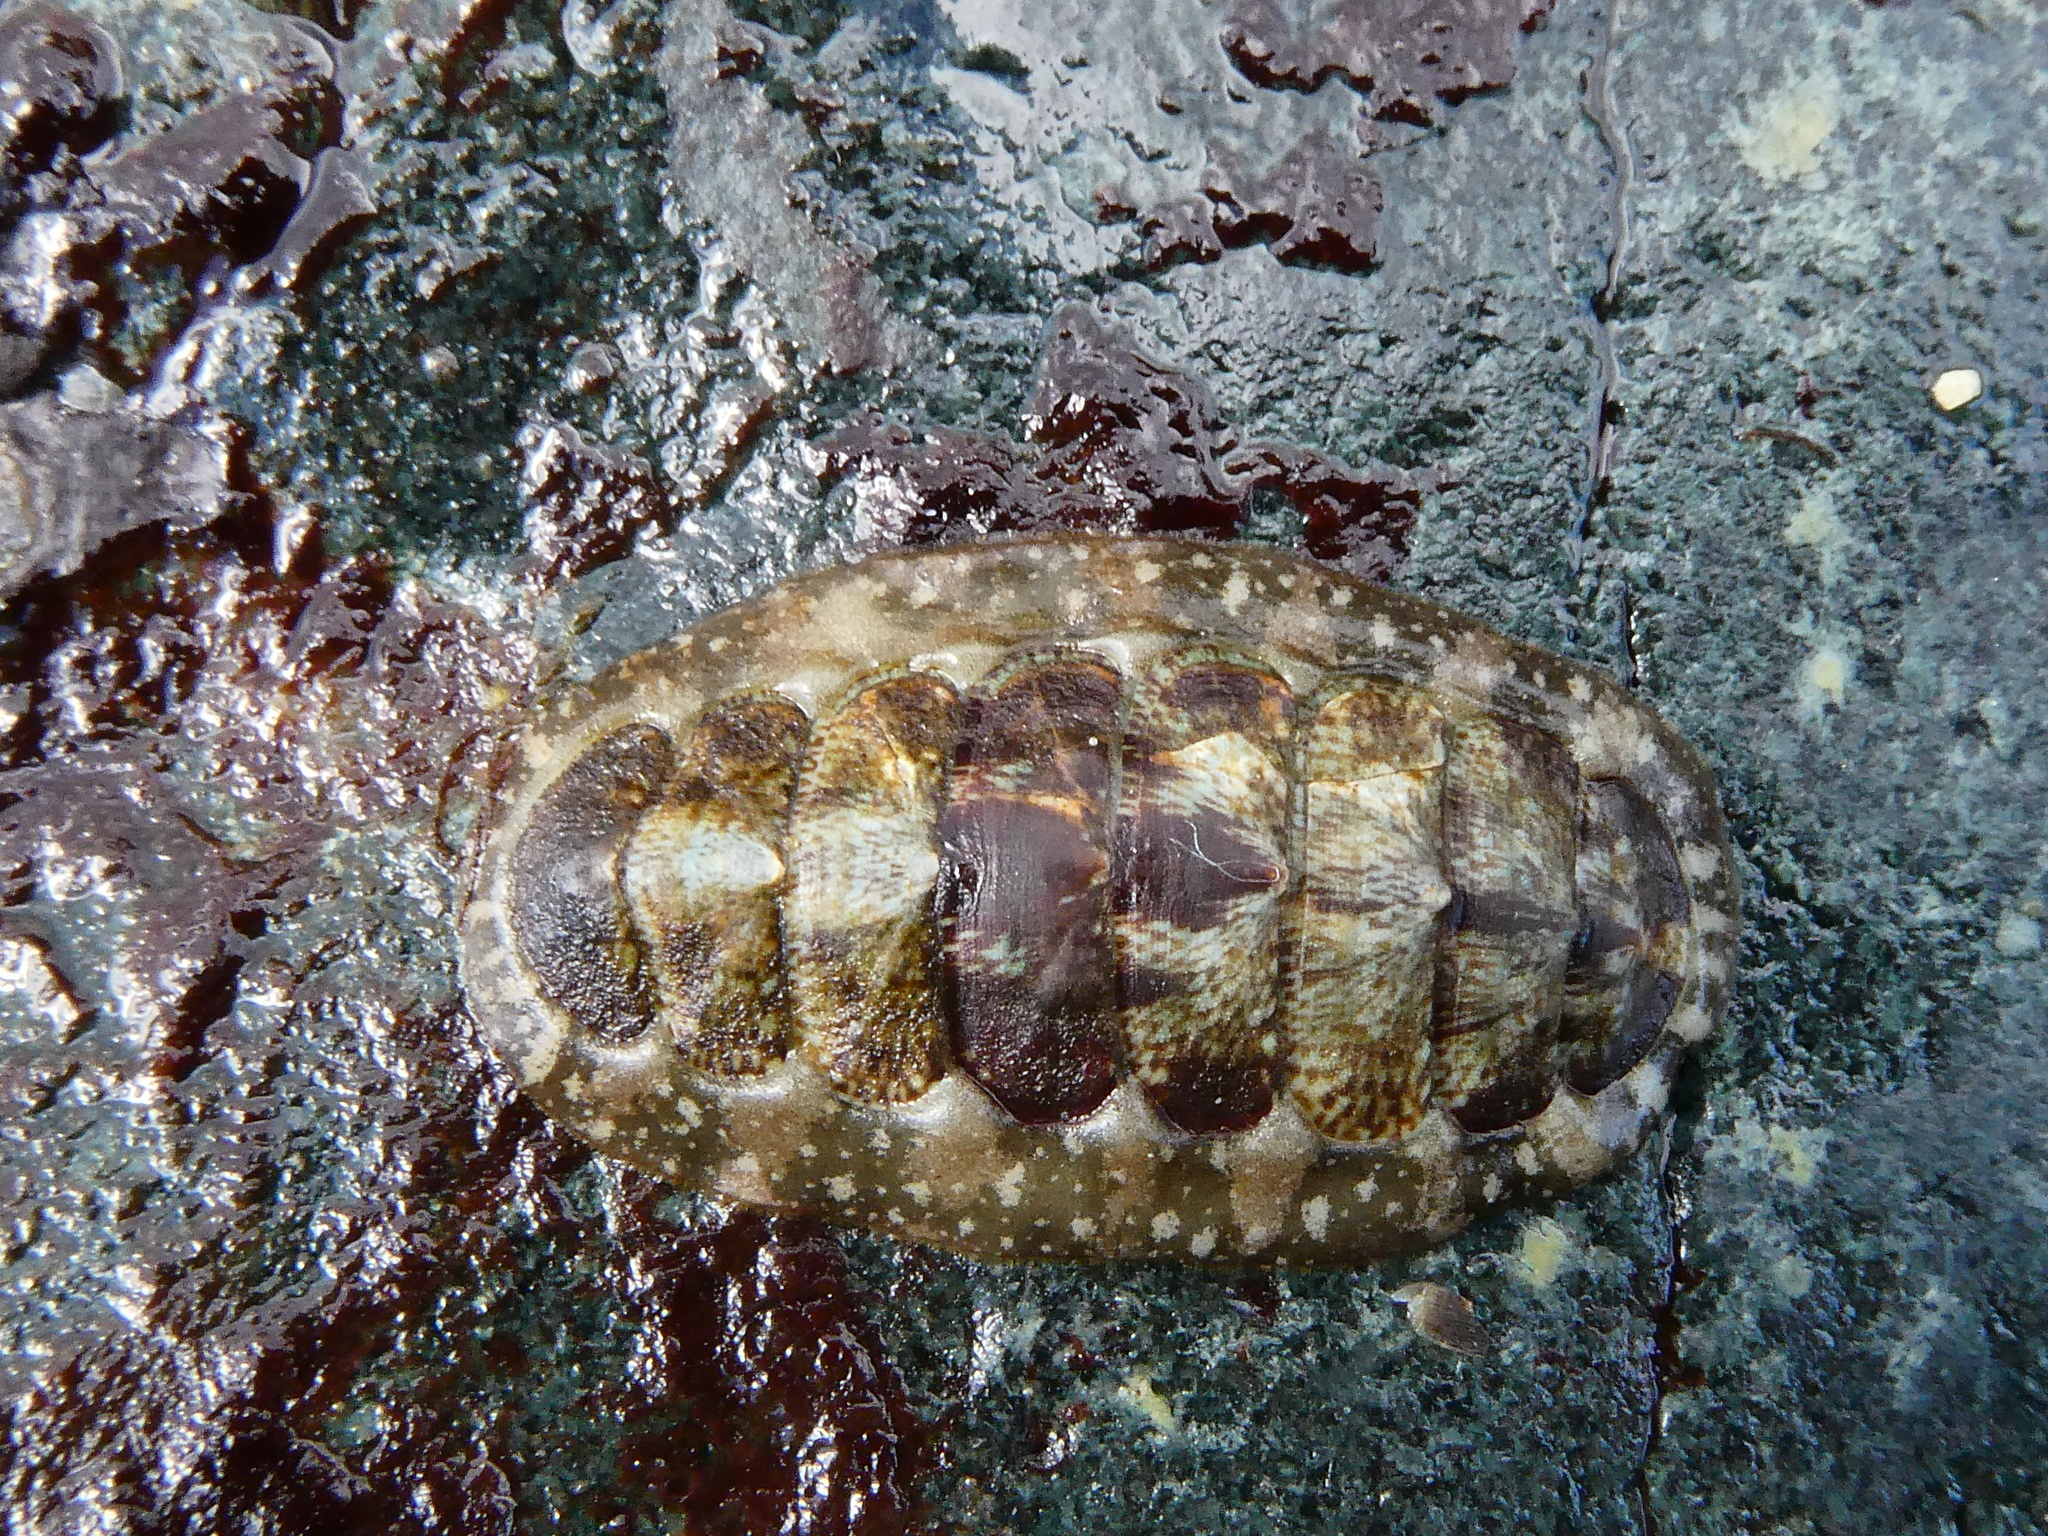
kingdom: Animalia
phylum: Mollusca
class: Polyplacophora
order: Chitonida
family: Tonicellidae
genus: Cyanoplax
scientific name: Cyanoplax dentiens
